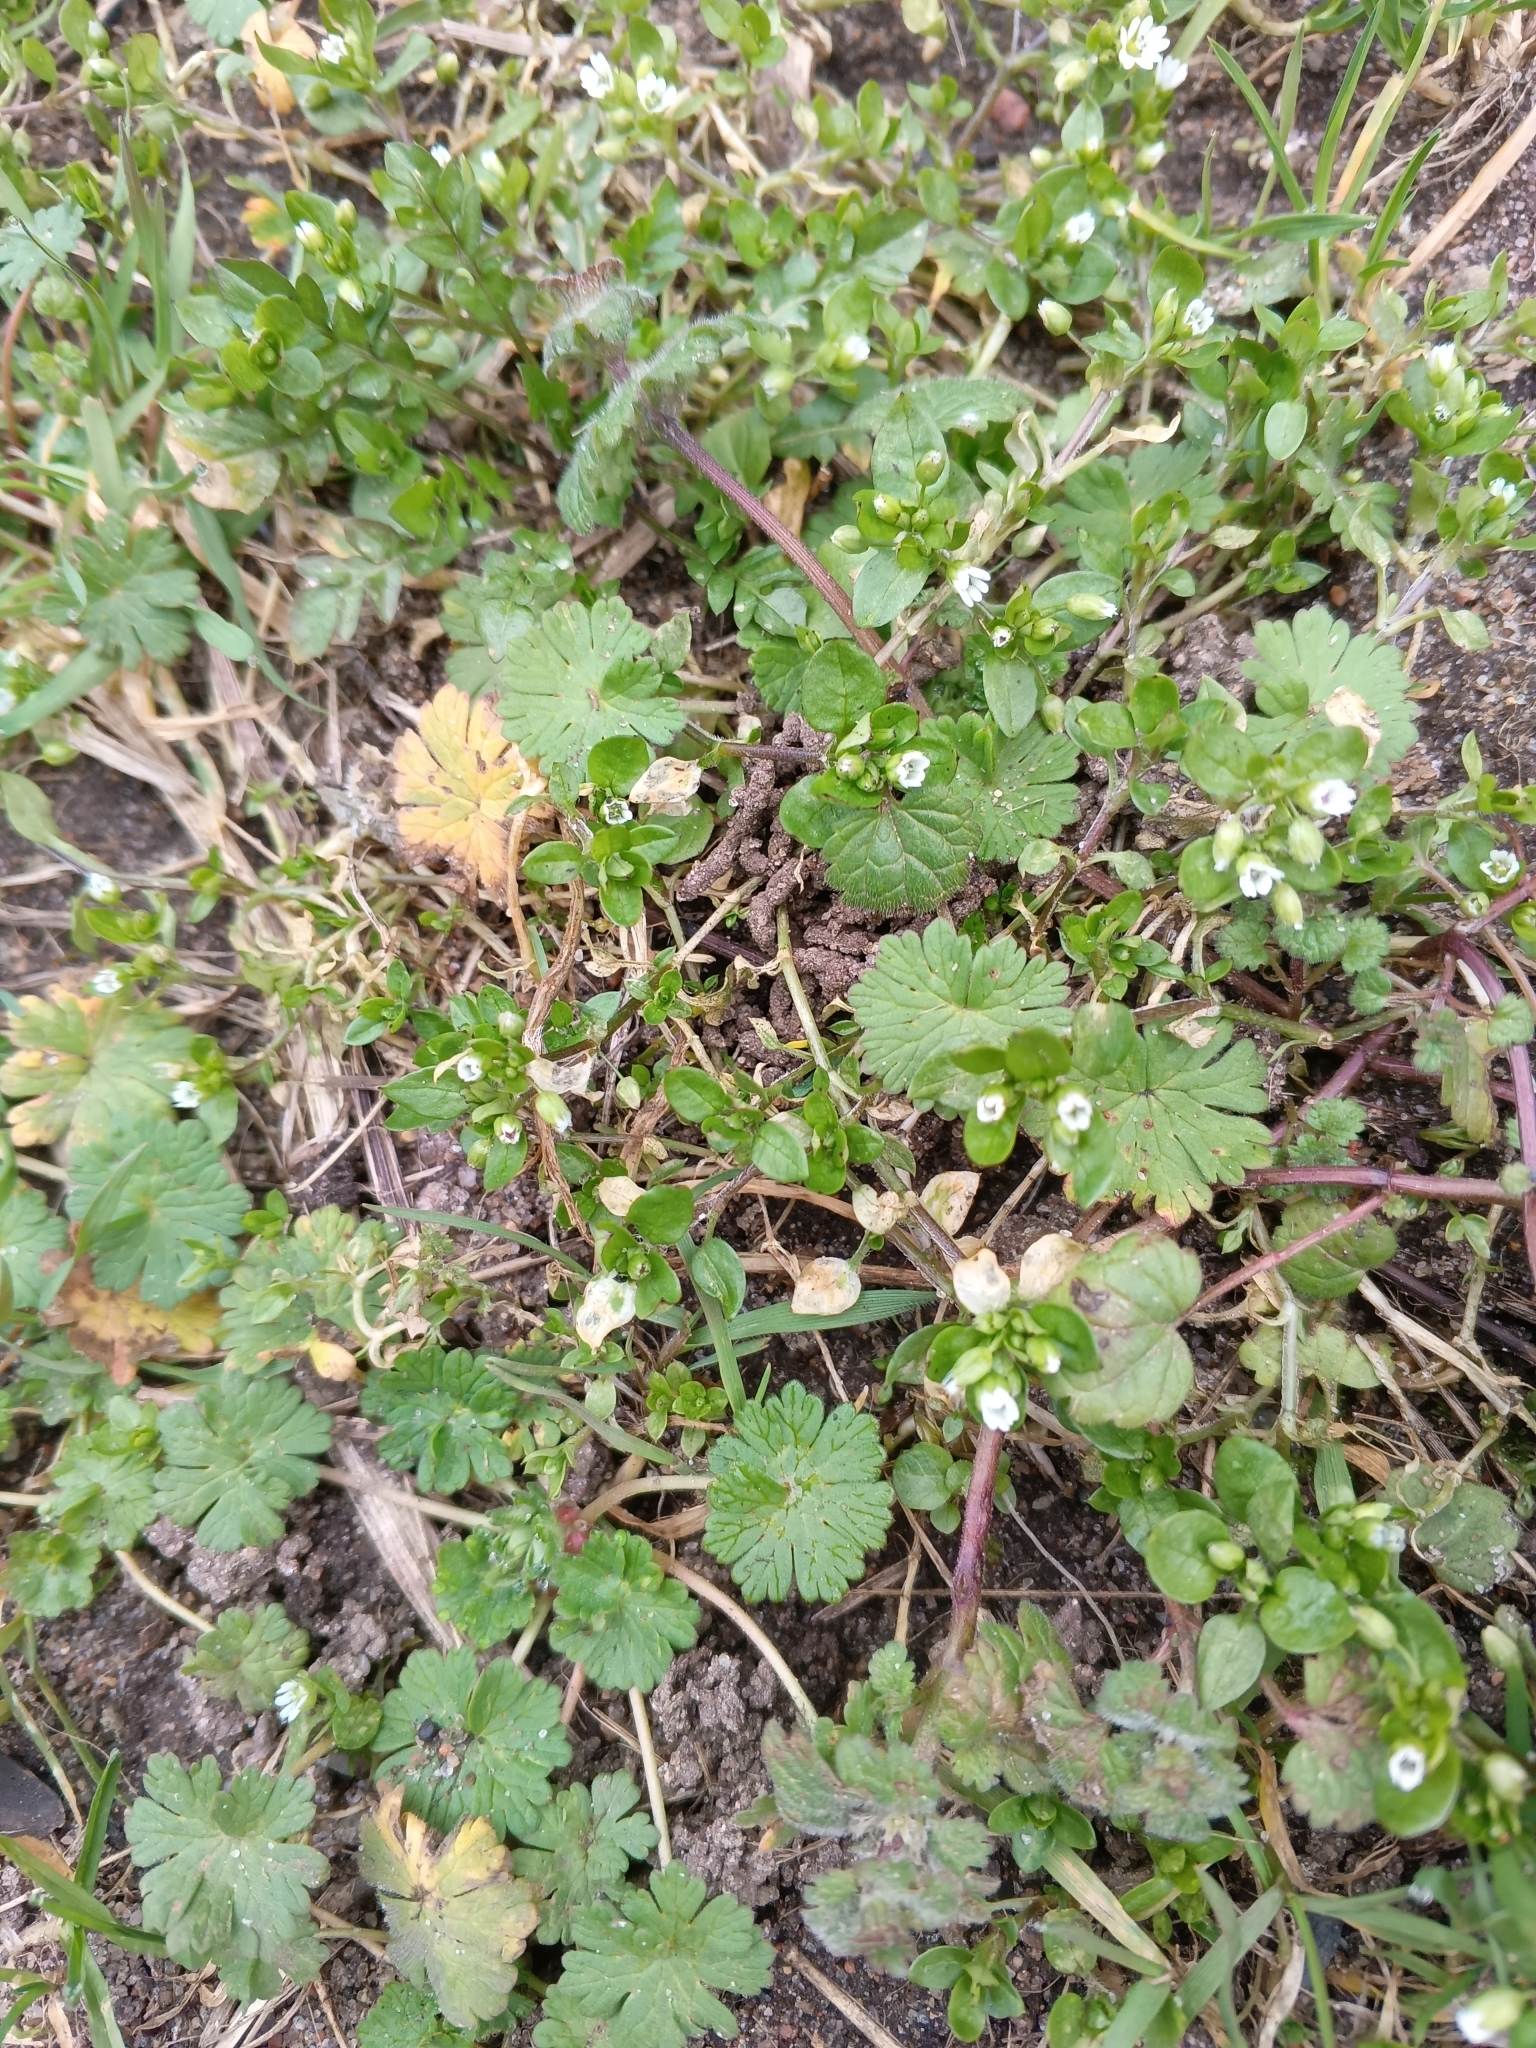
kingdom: Plantae
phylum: Tracheophyta
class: Magnoliopsida
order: Caryophyllales
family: Caryophyllaceae
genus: Stellaria
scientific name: Stellaria media
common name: Common chickweed
